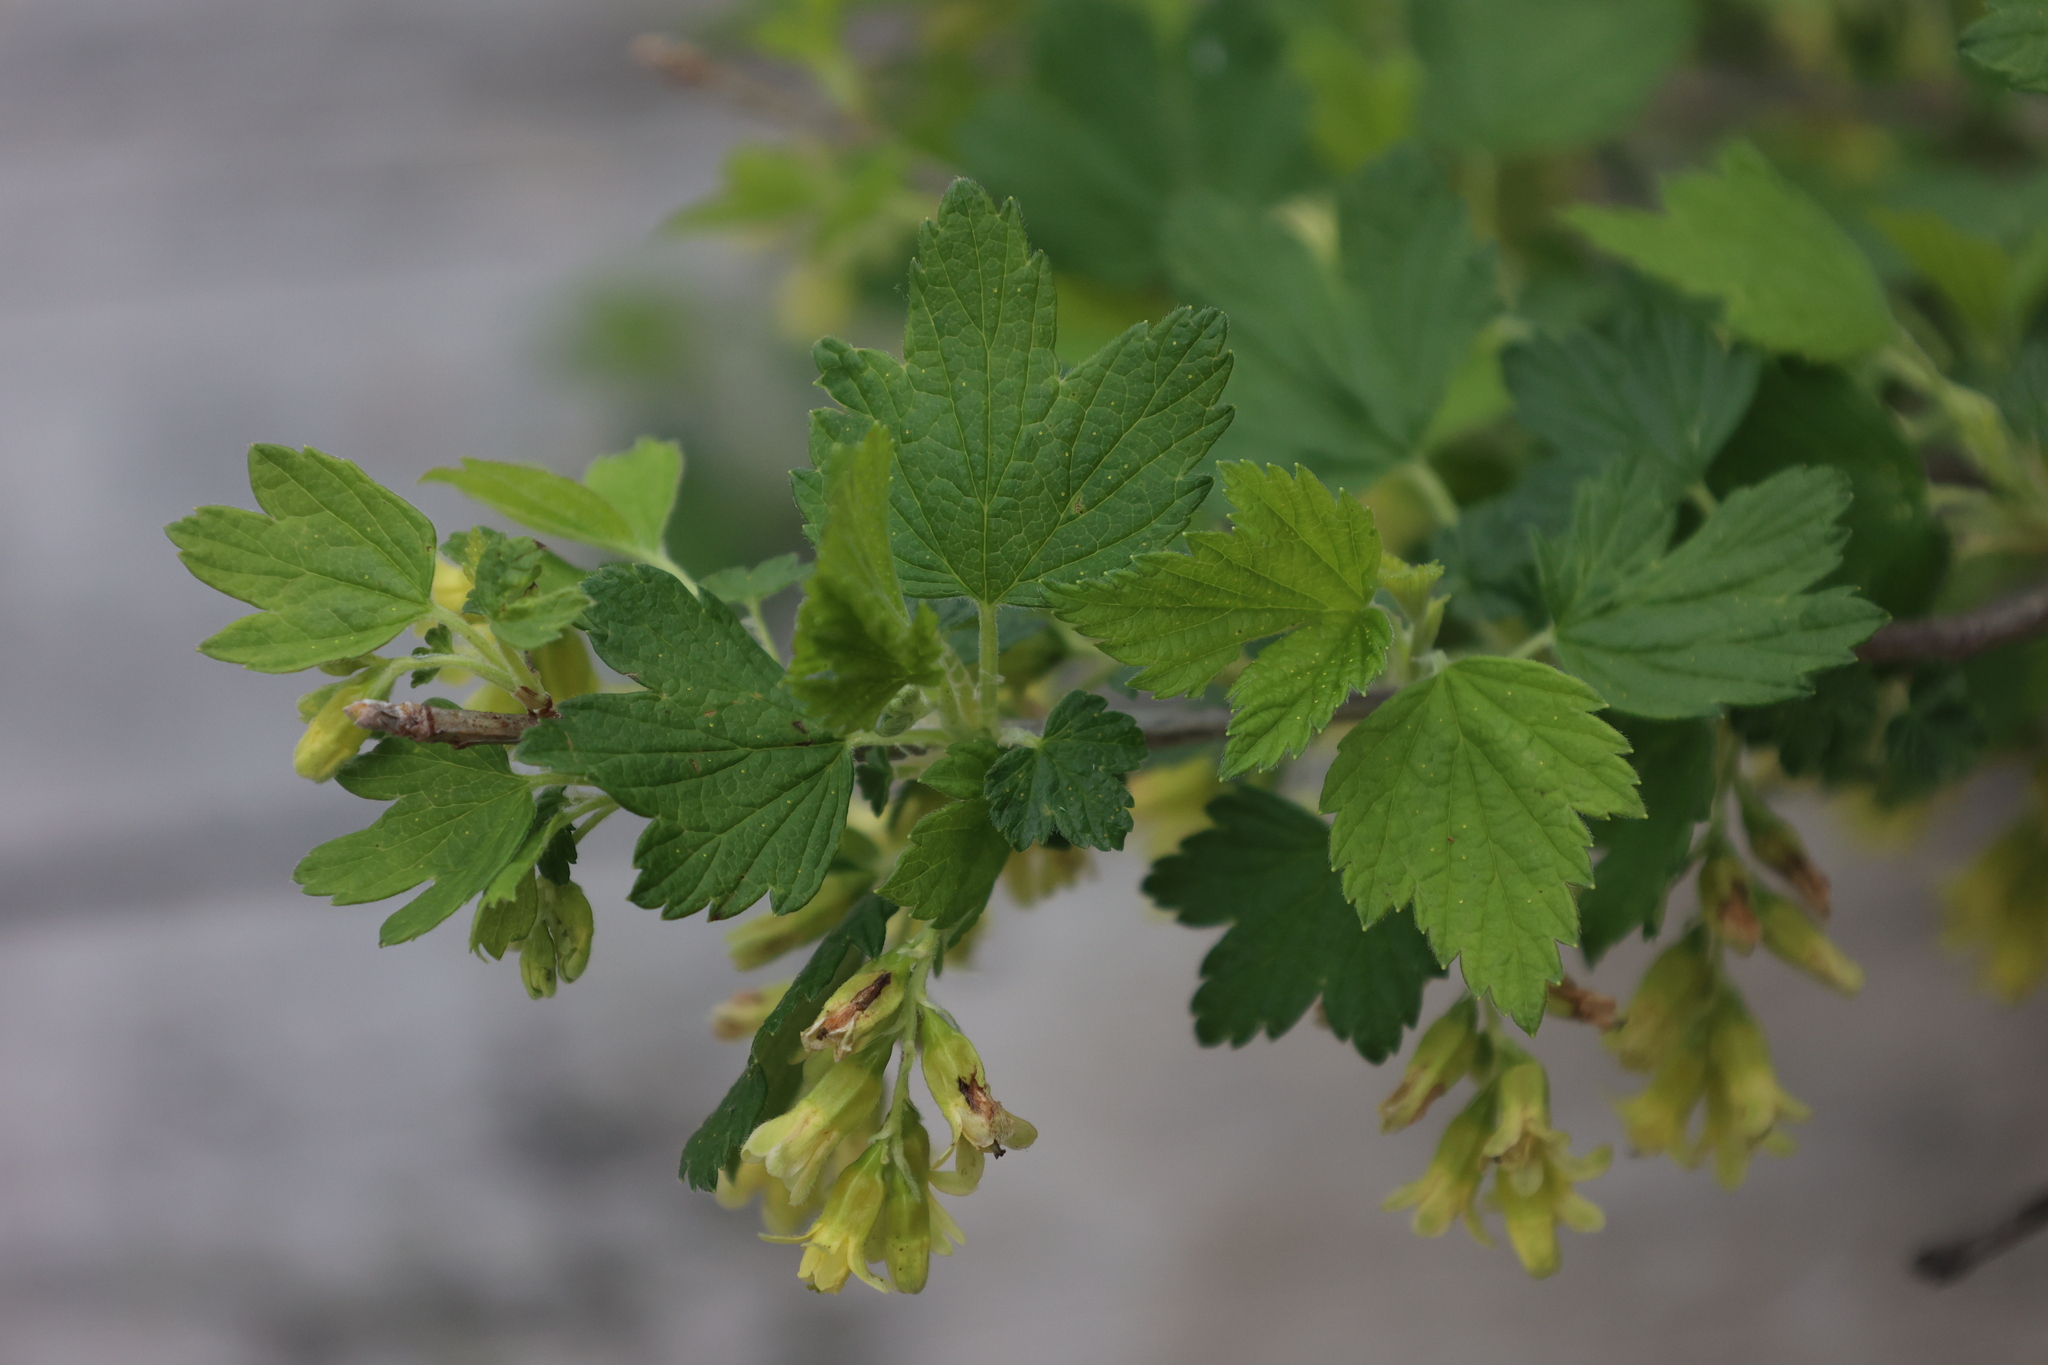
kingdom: Plantae
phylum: Tracheophyta
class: Magnoliopsida
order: Saxifragales
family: Grossulariaceae
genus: Ribes
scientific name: Ribes americanum
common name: American black currant
